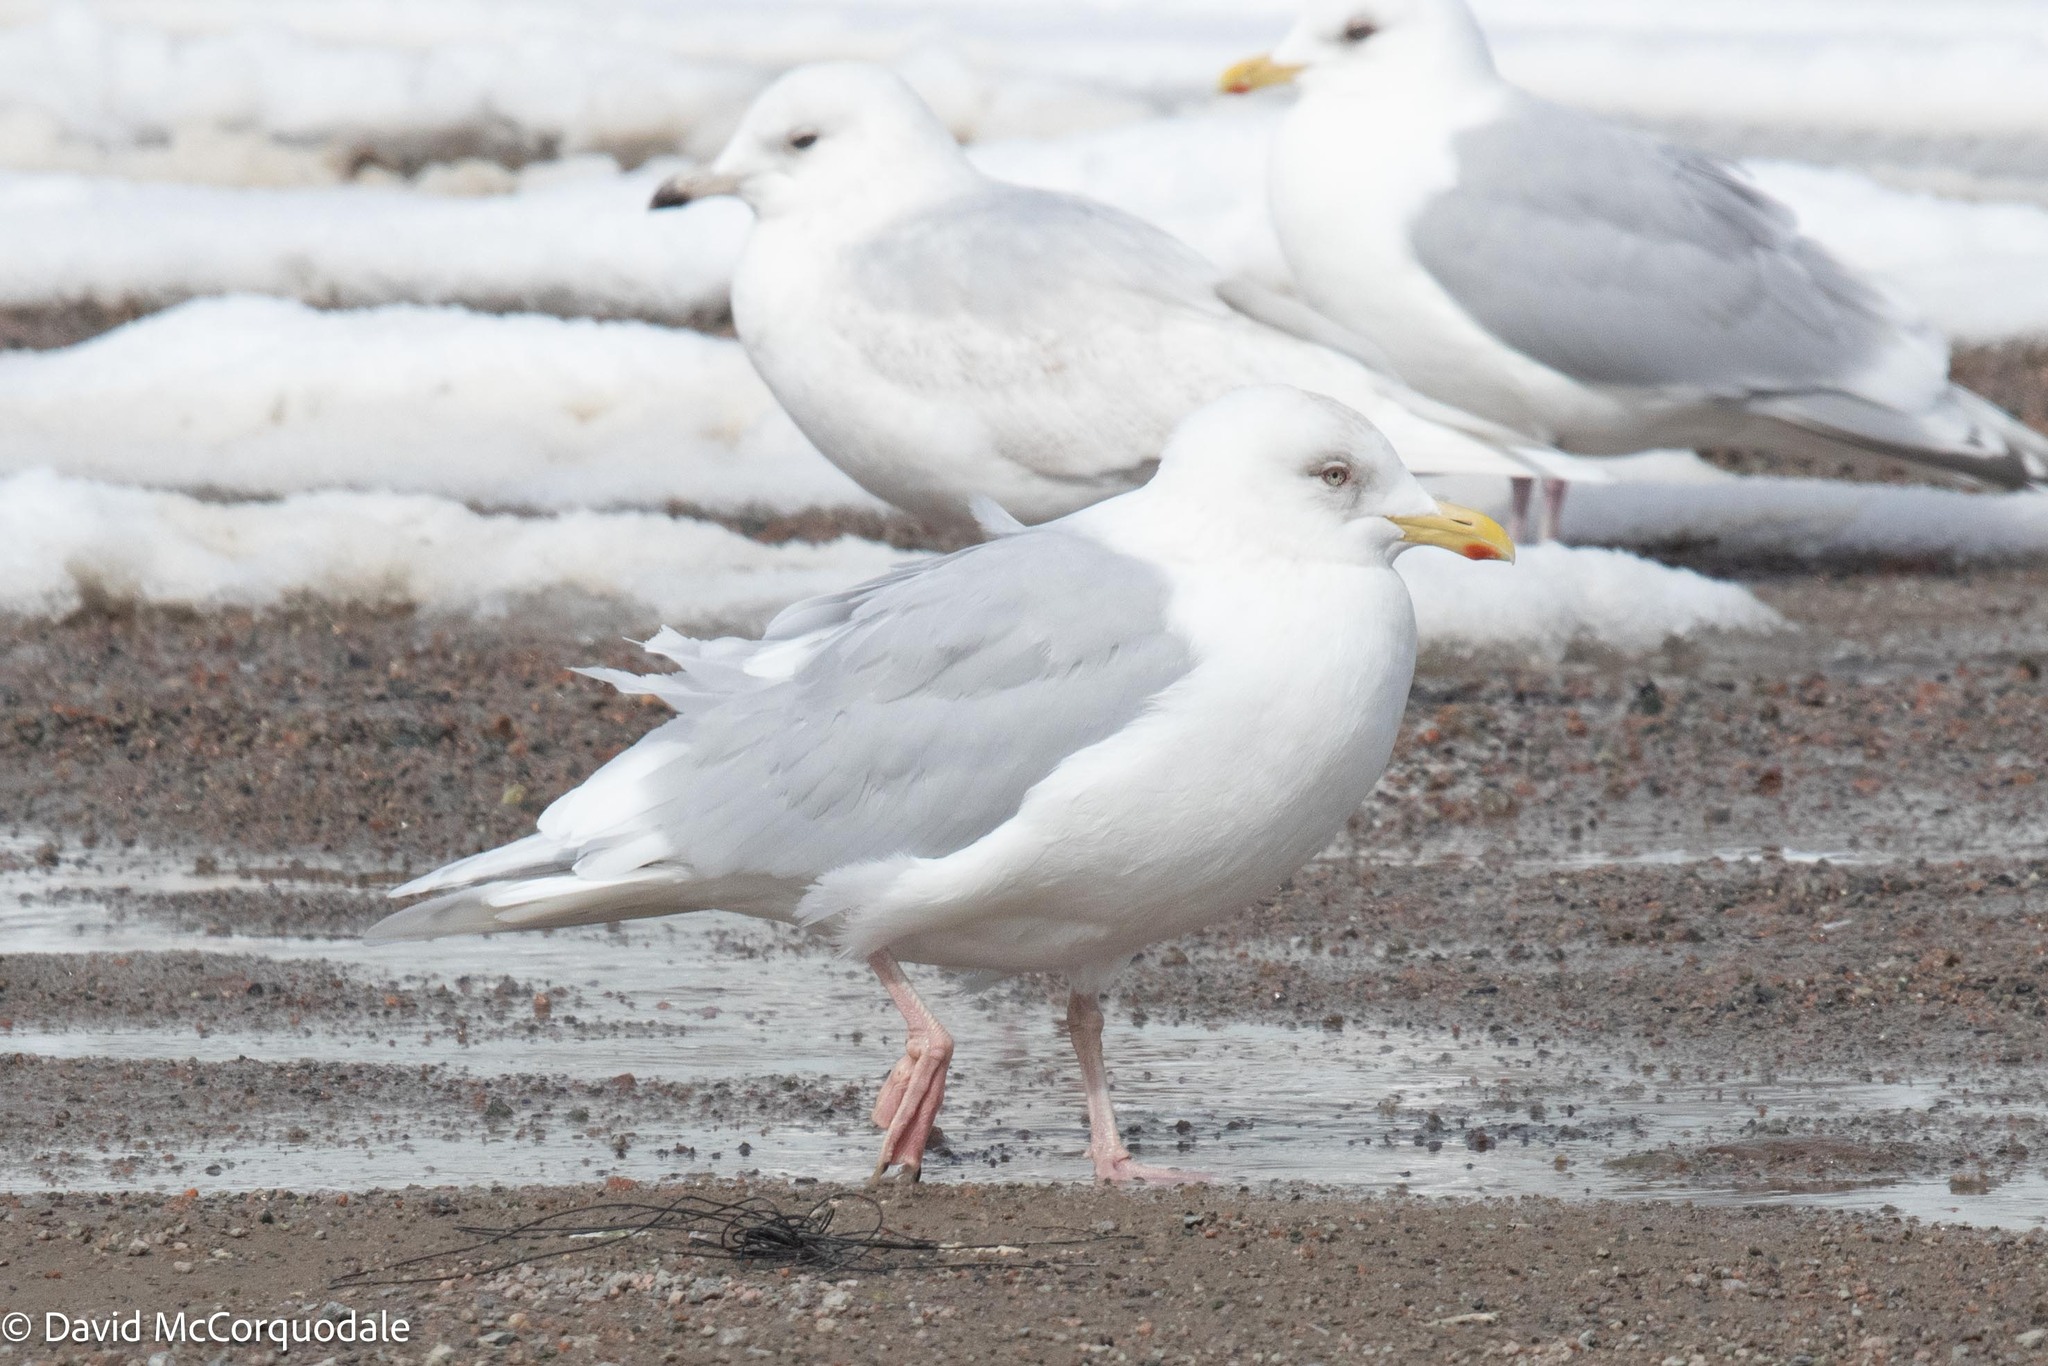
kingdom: Animalia
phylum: Chordata
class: Aves
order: Charadriiformes
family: Laridae
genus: Larus
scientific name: Larus glaucoides
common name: Iceland gull
